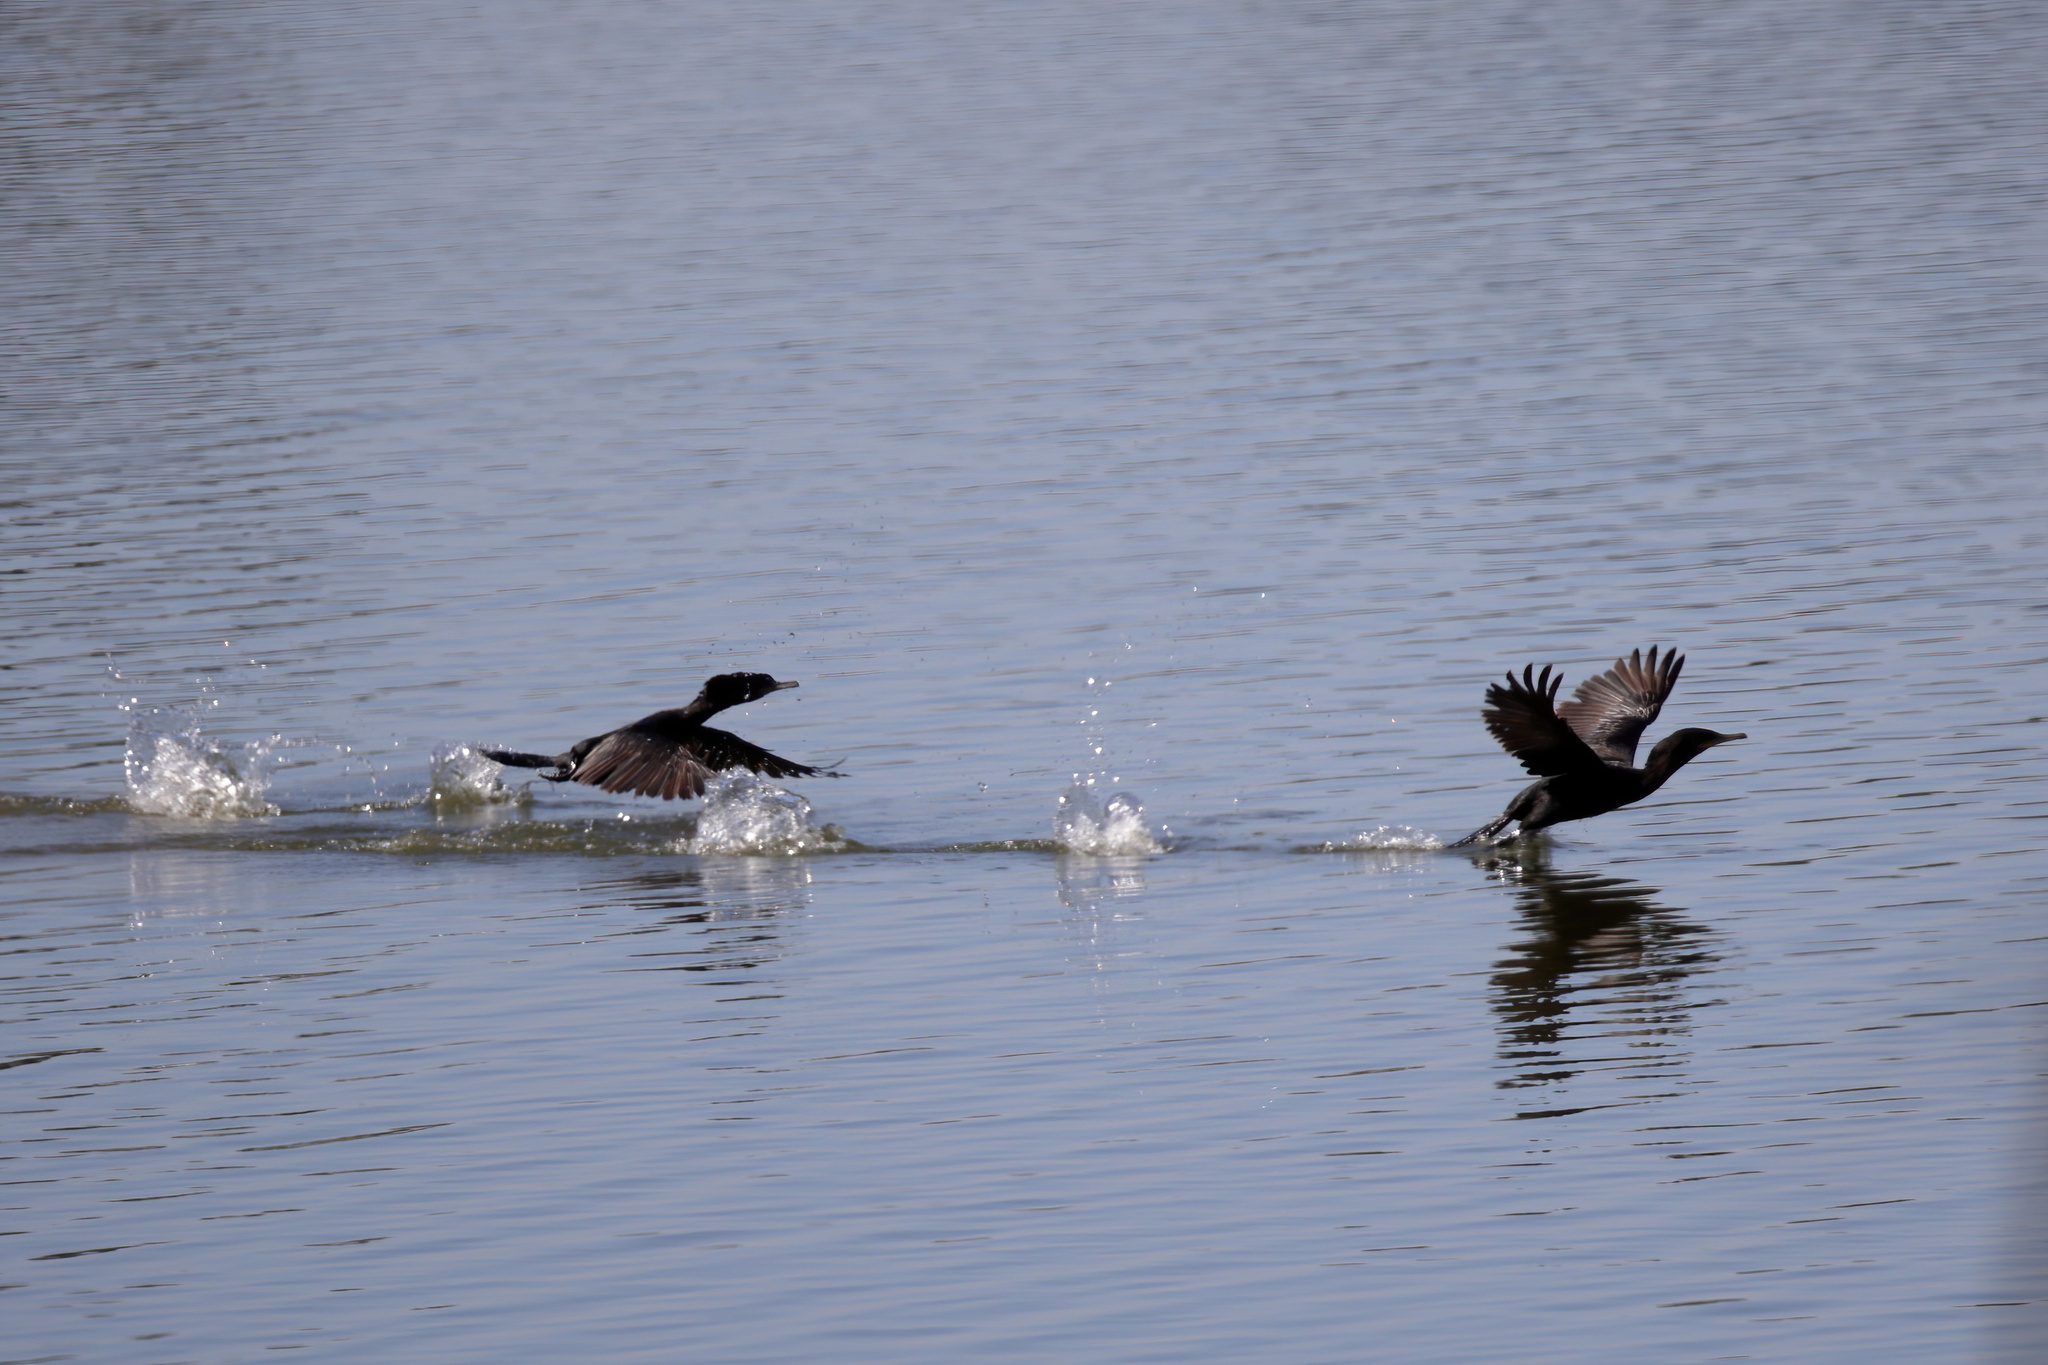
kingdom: Animalia
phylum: Chordata
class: Aves
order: Suliformes
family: Phalacrocoracidae
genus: Phalacrocorax
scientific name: Phalacrocorax brasilianus
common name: Neotropic cormorant
